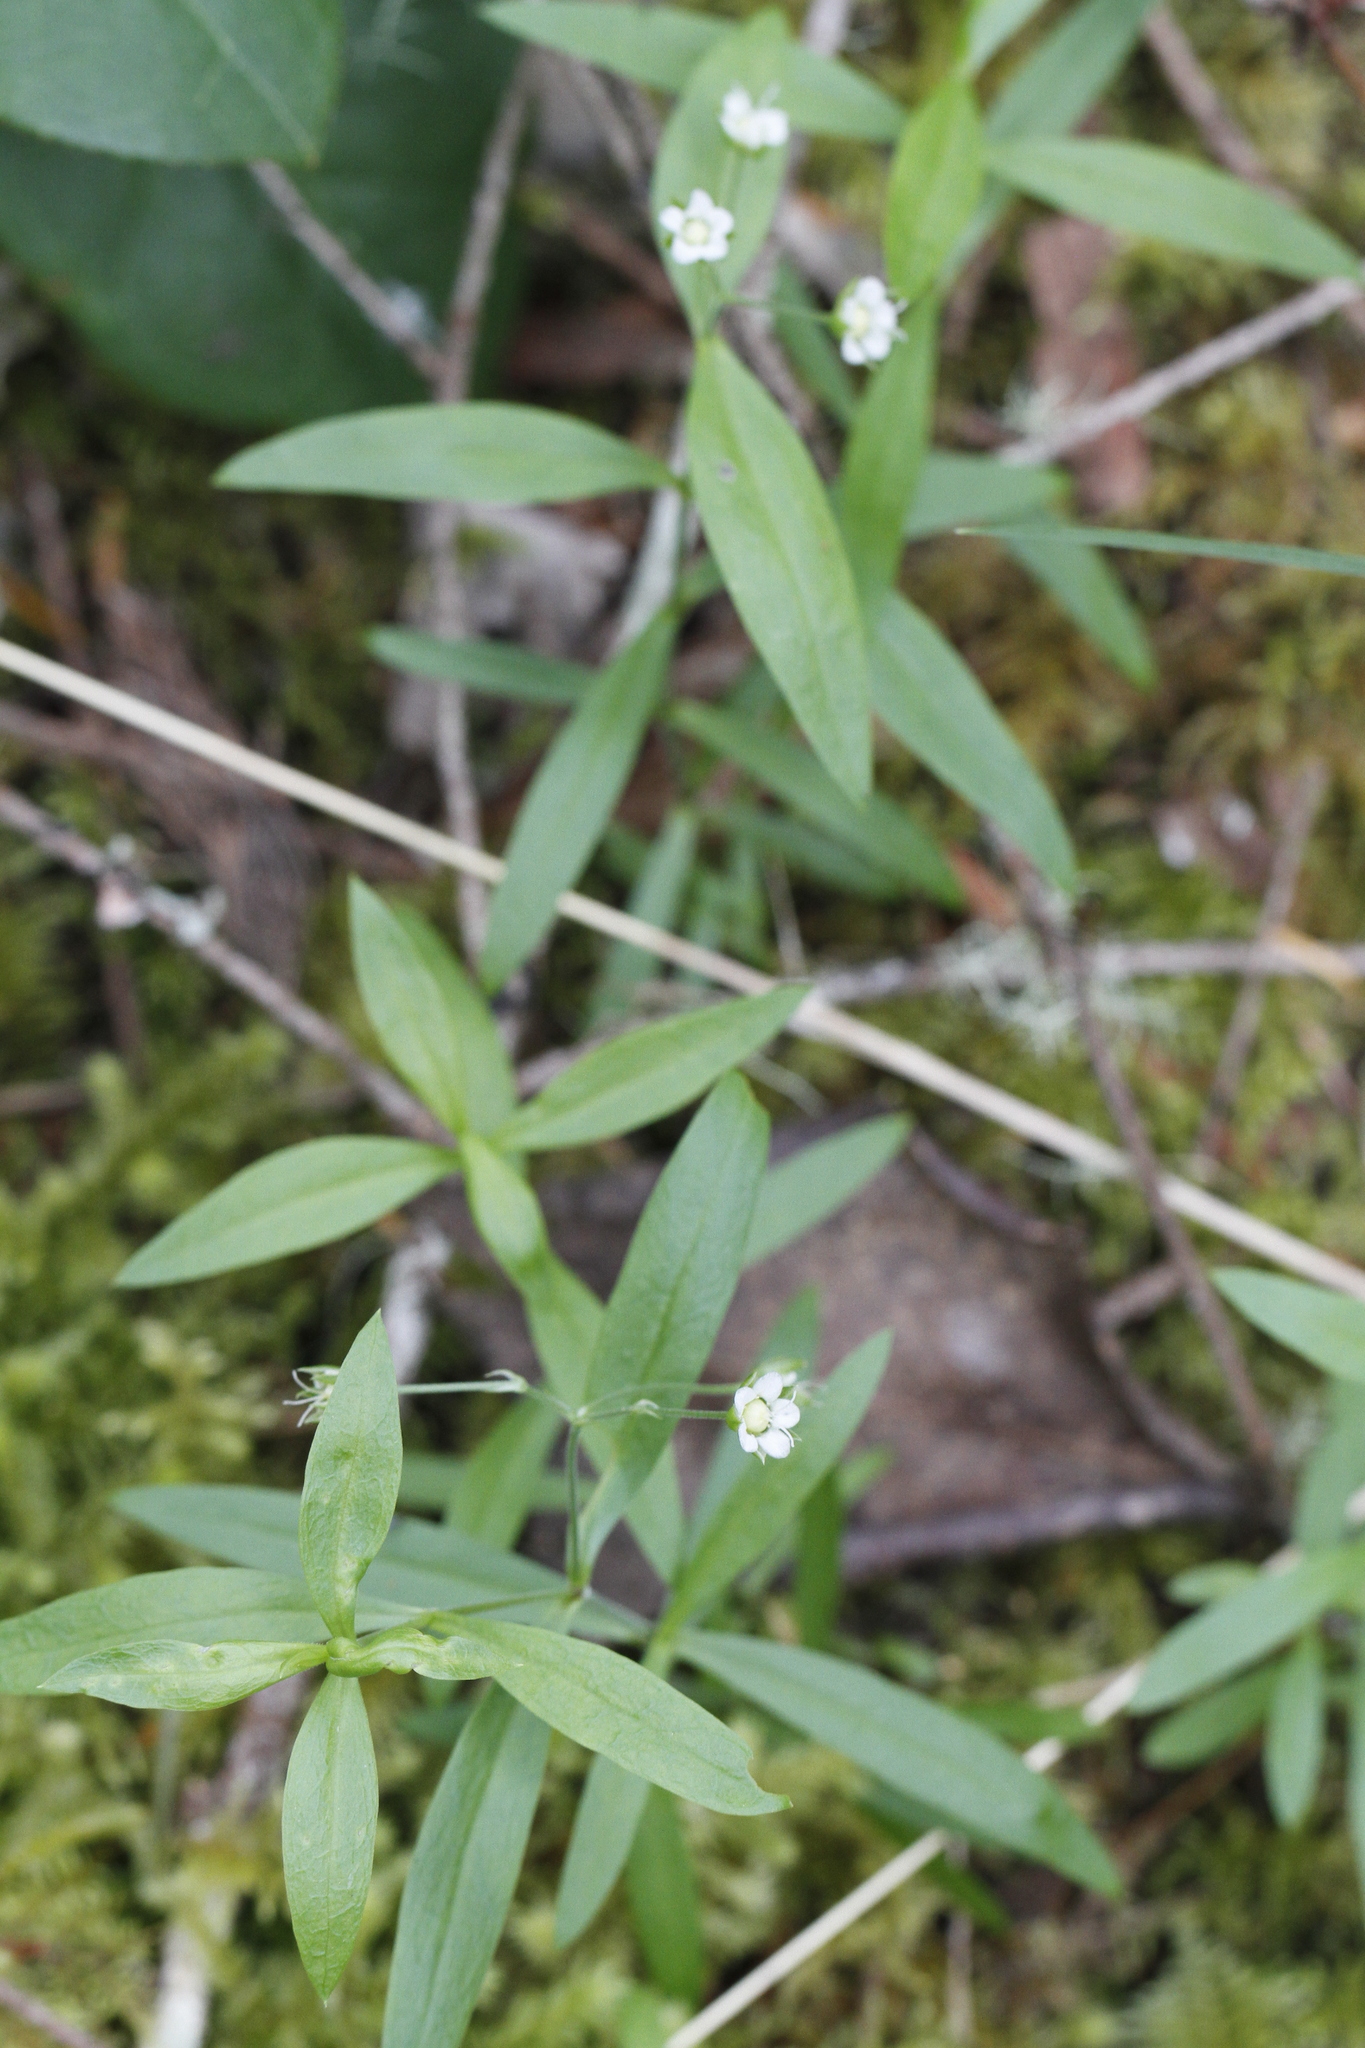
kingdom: Plantae
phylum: Tracheophyta
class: Magnoliopsida
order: Caryophyllales
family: Caryophyllaceae
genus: Moehringia
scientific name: Moehringia macrophylla
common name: Big-leaf sandwort
